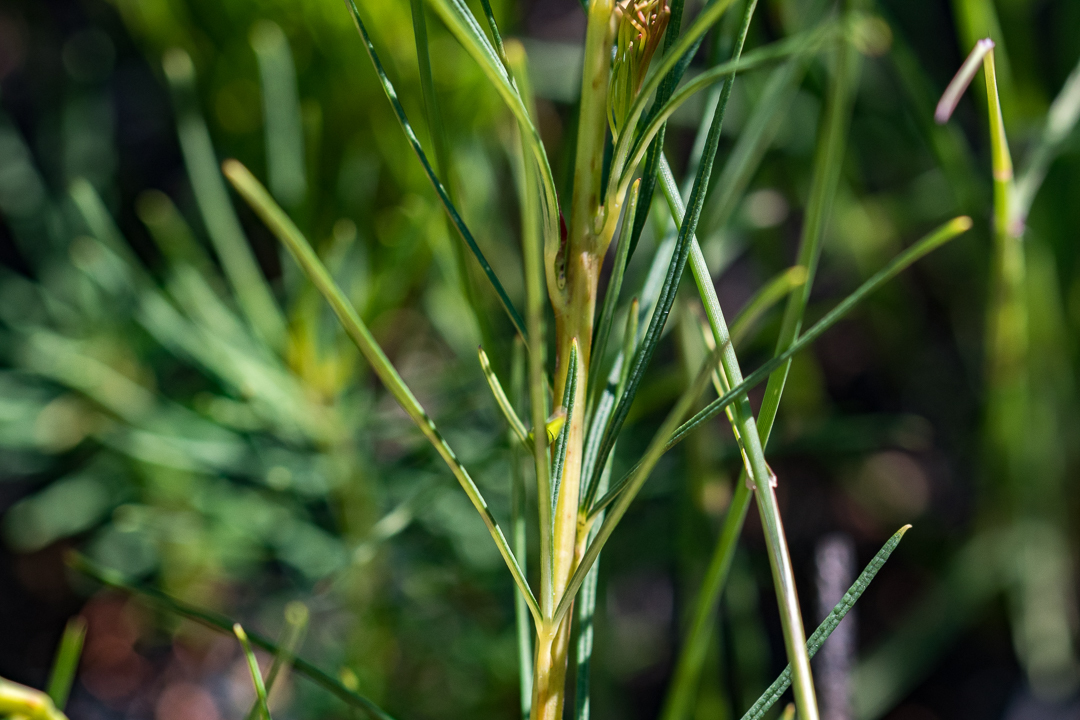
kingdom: Plantae
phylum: Tracheophyta
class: Magnoliopsida
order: Sapindales
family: Anacardiaceae
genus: Searsia
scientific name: Searsia rosmarinifolia
